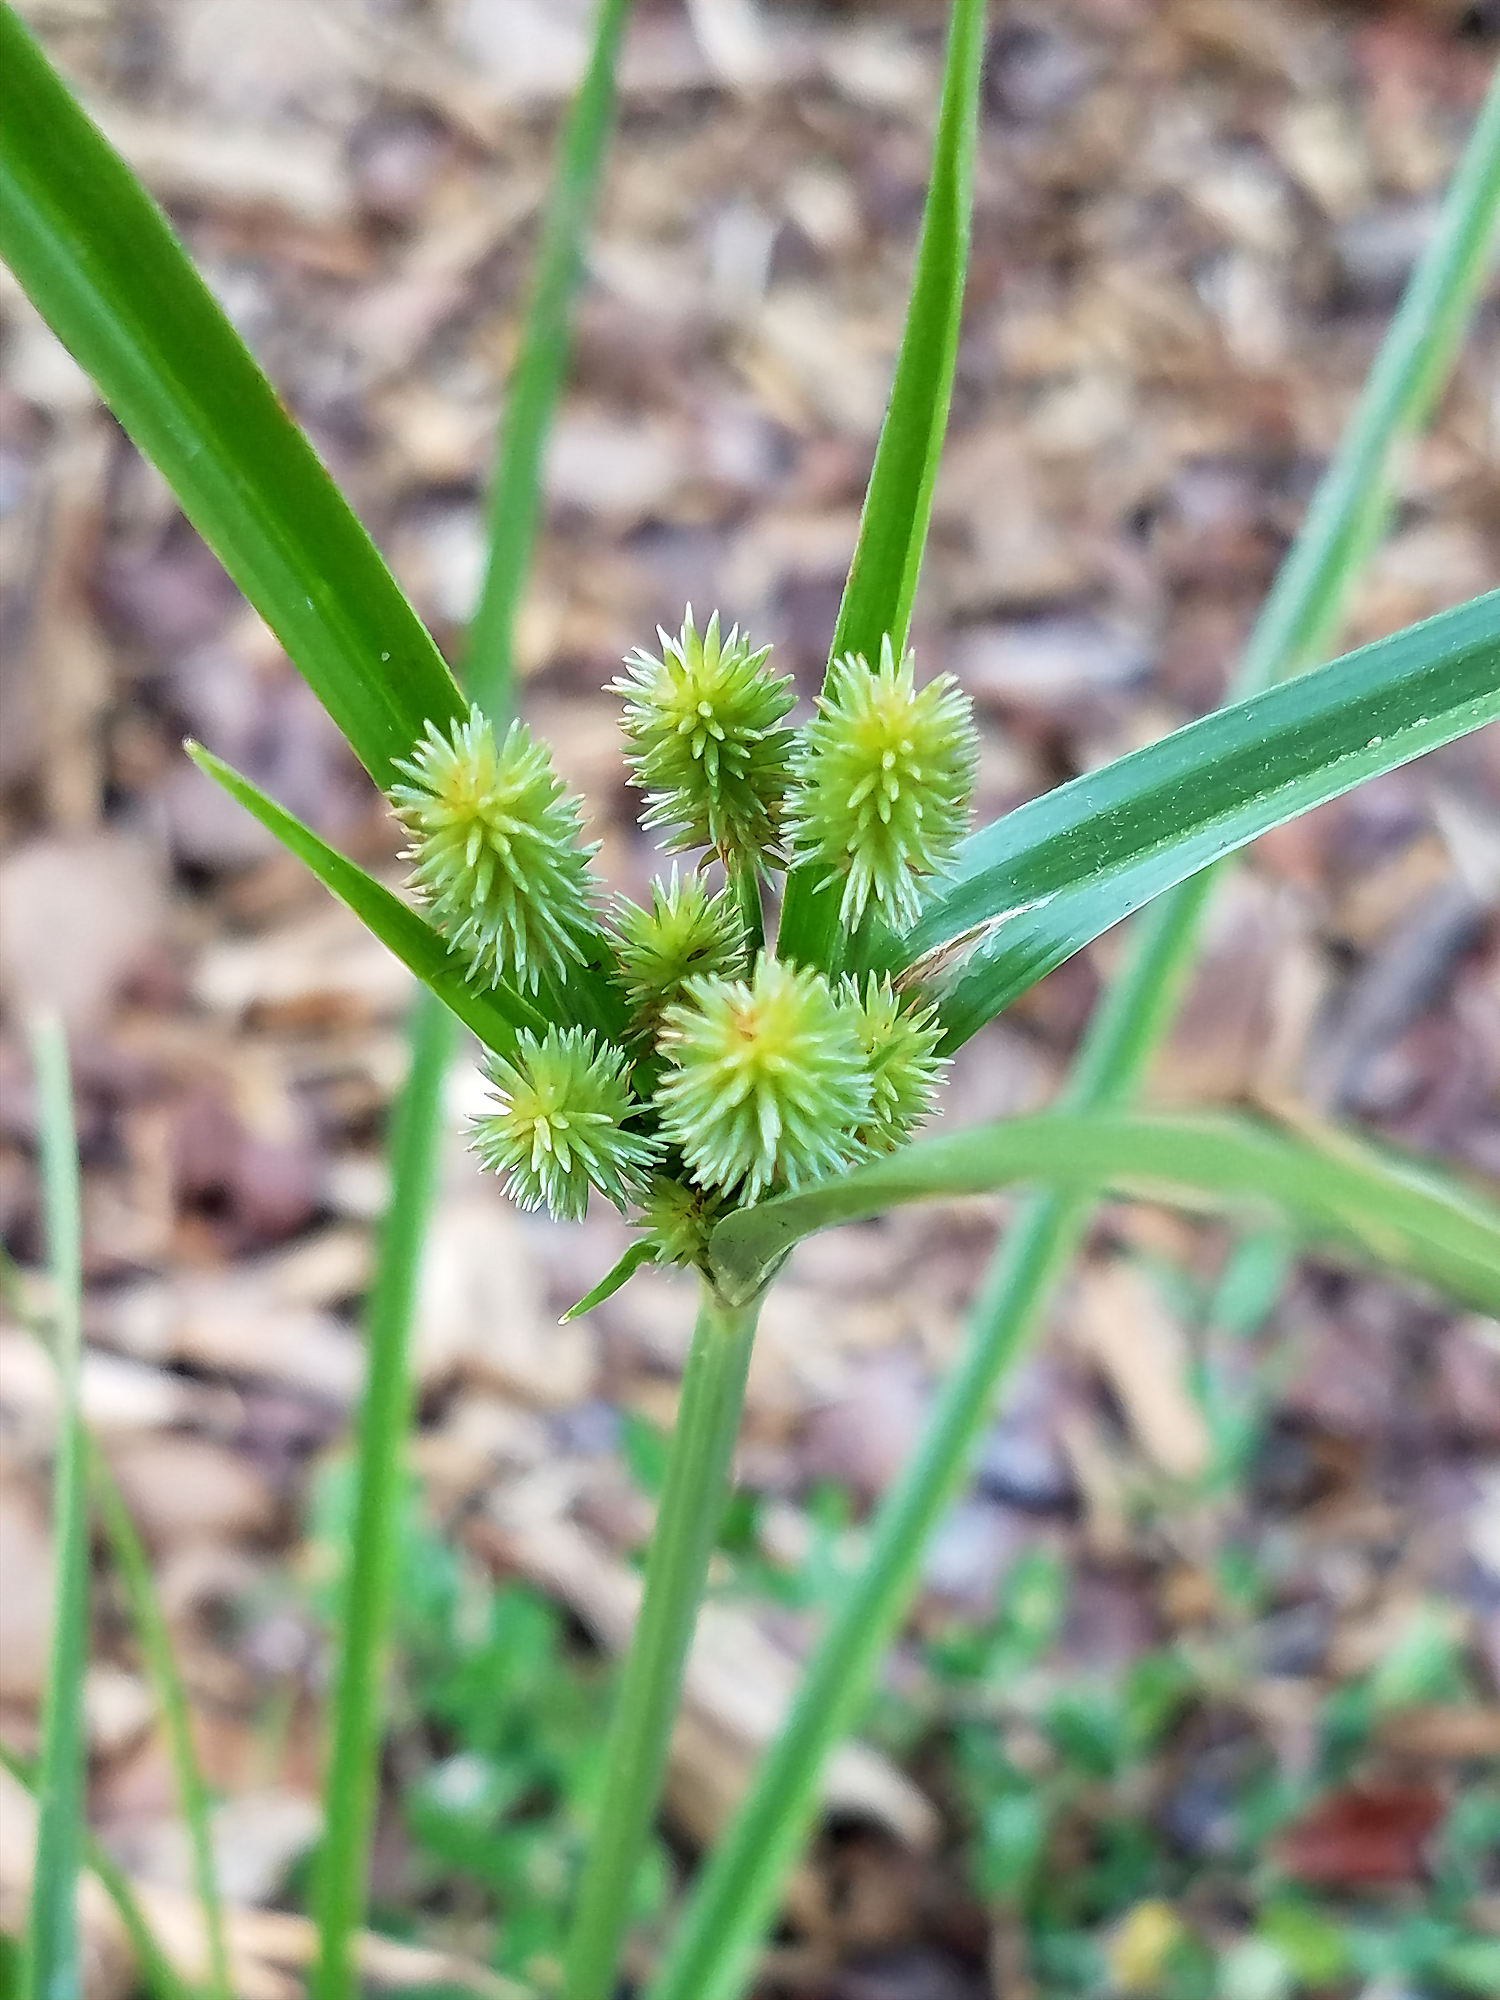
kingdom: Plantae
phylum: Tracheophyta
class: Liliopsida
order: Poales
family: Cyperaceae
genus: Cyperus
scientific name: Cyperus retrorsus
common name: Pinebarren flat sedge
